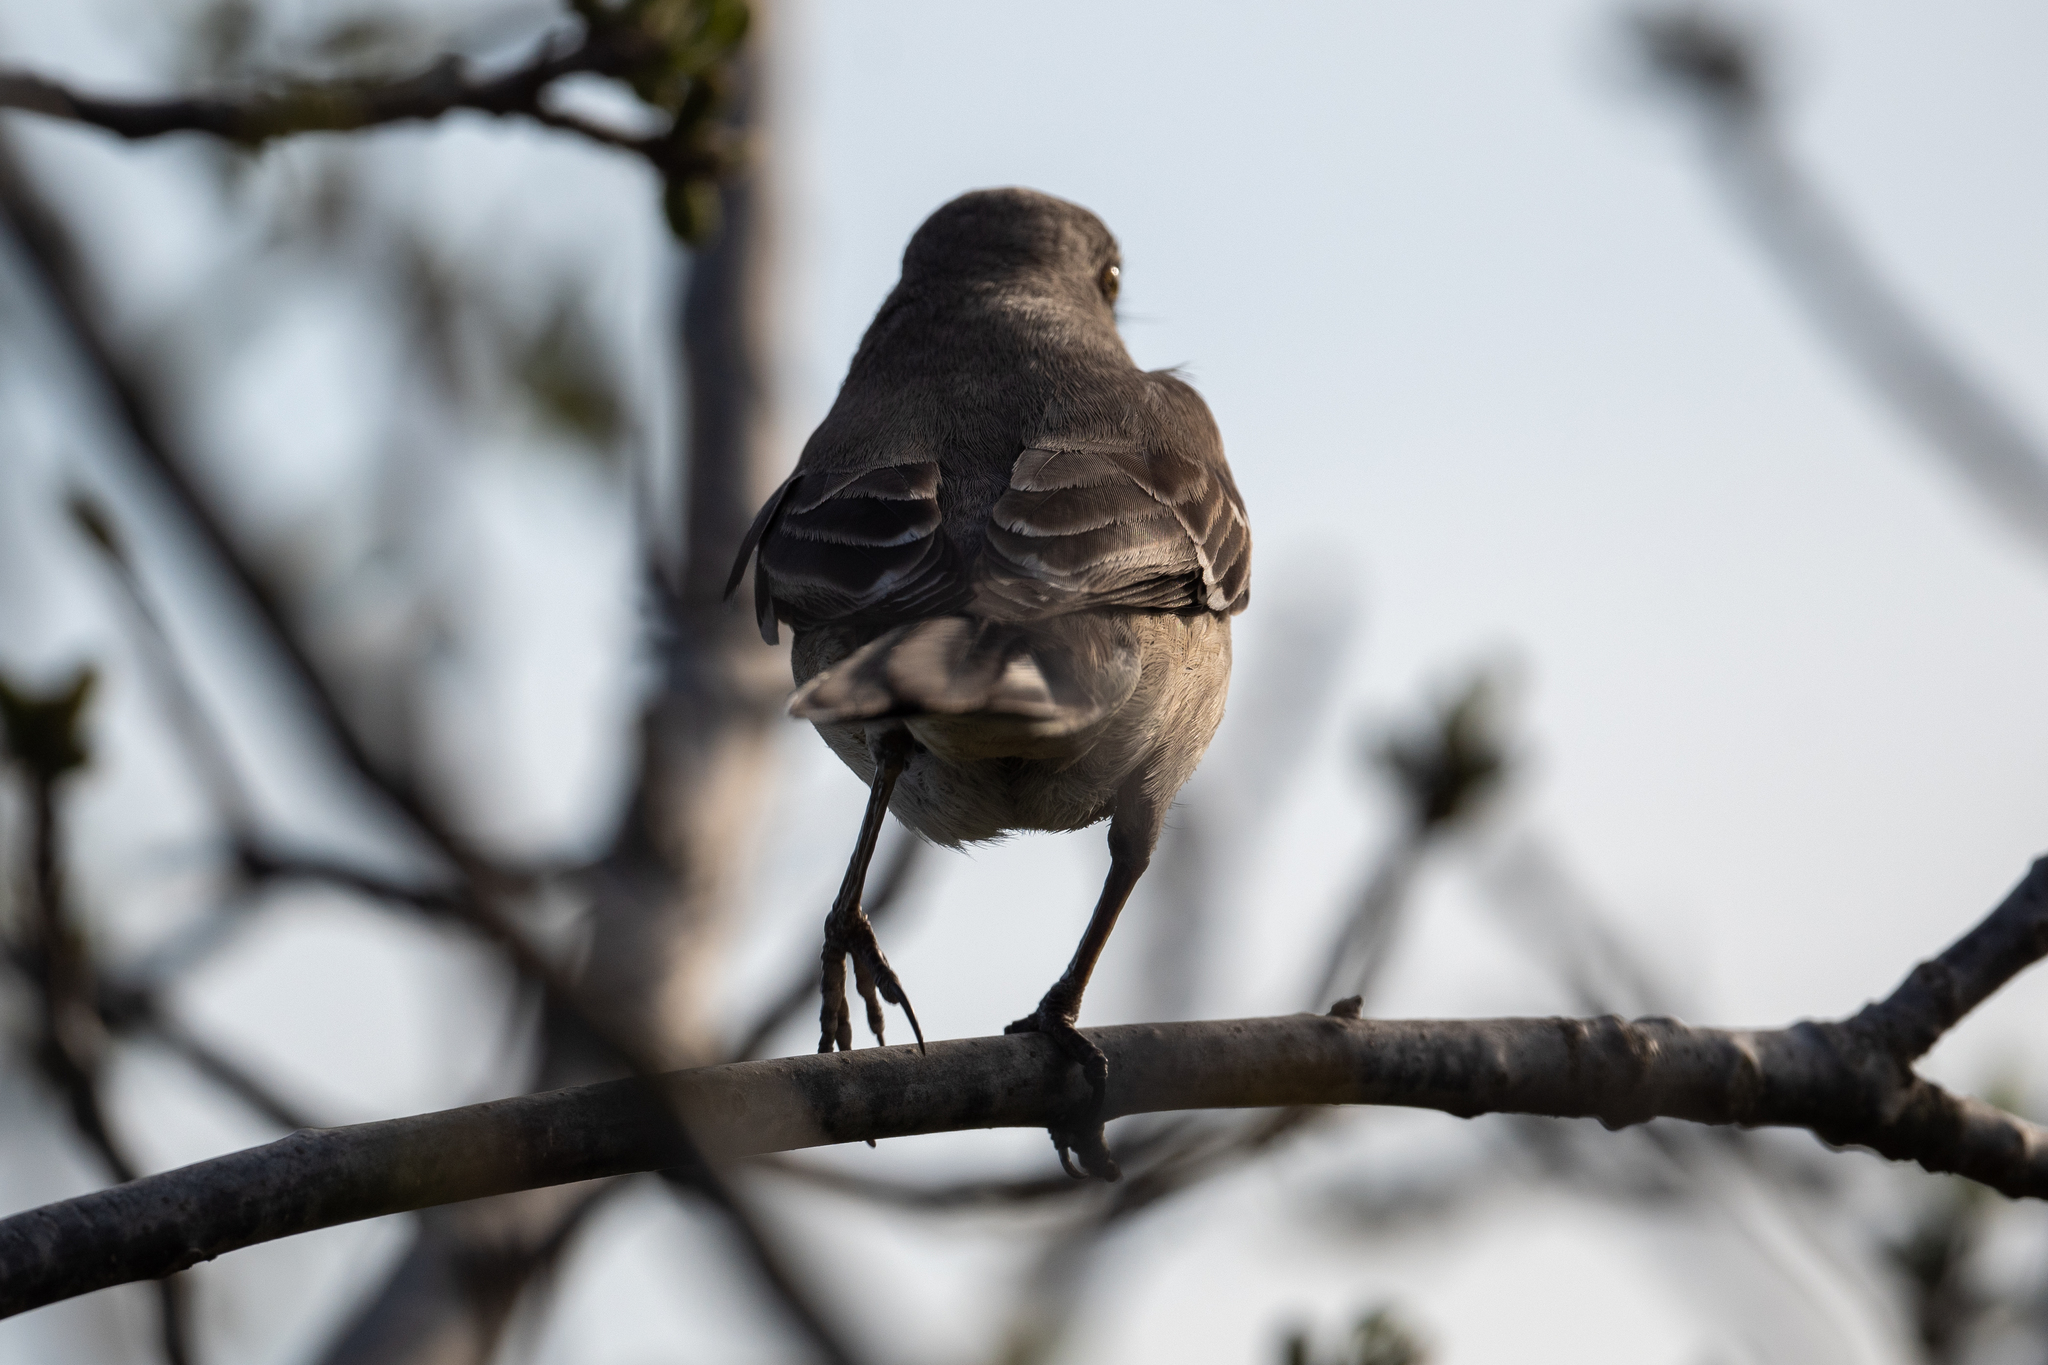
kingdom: Animalia
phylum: Chordata
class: Aves
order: Passeriformes
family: Mimidae
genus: Mimus
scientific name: Mimus polyglottos
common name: Northern mockingbird
